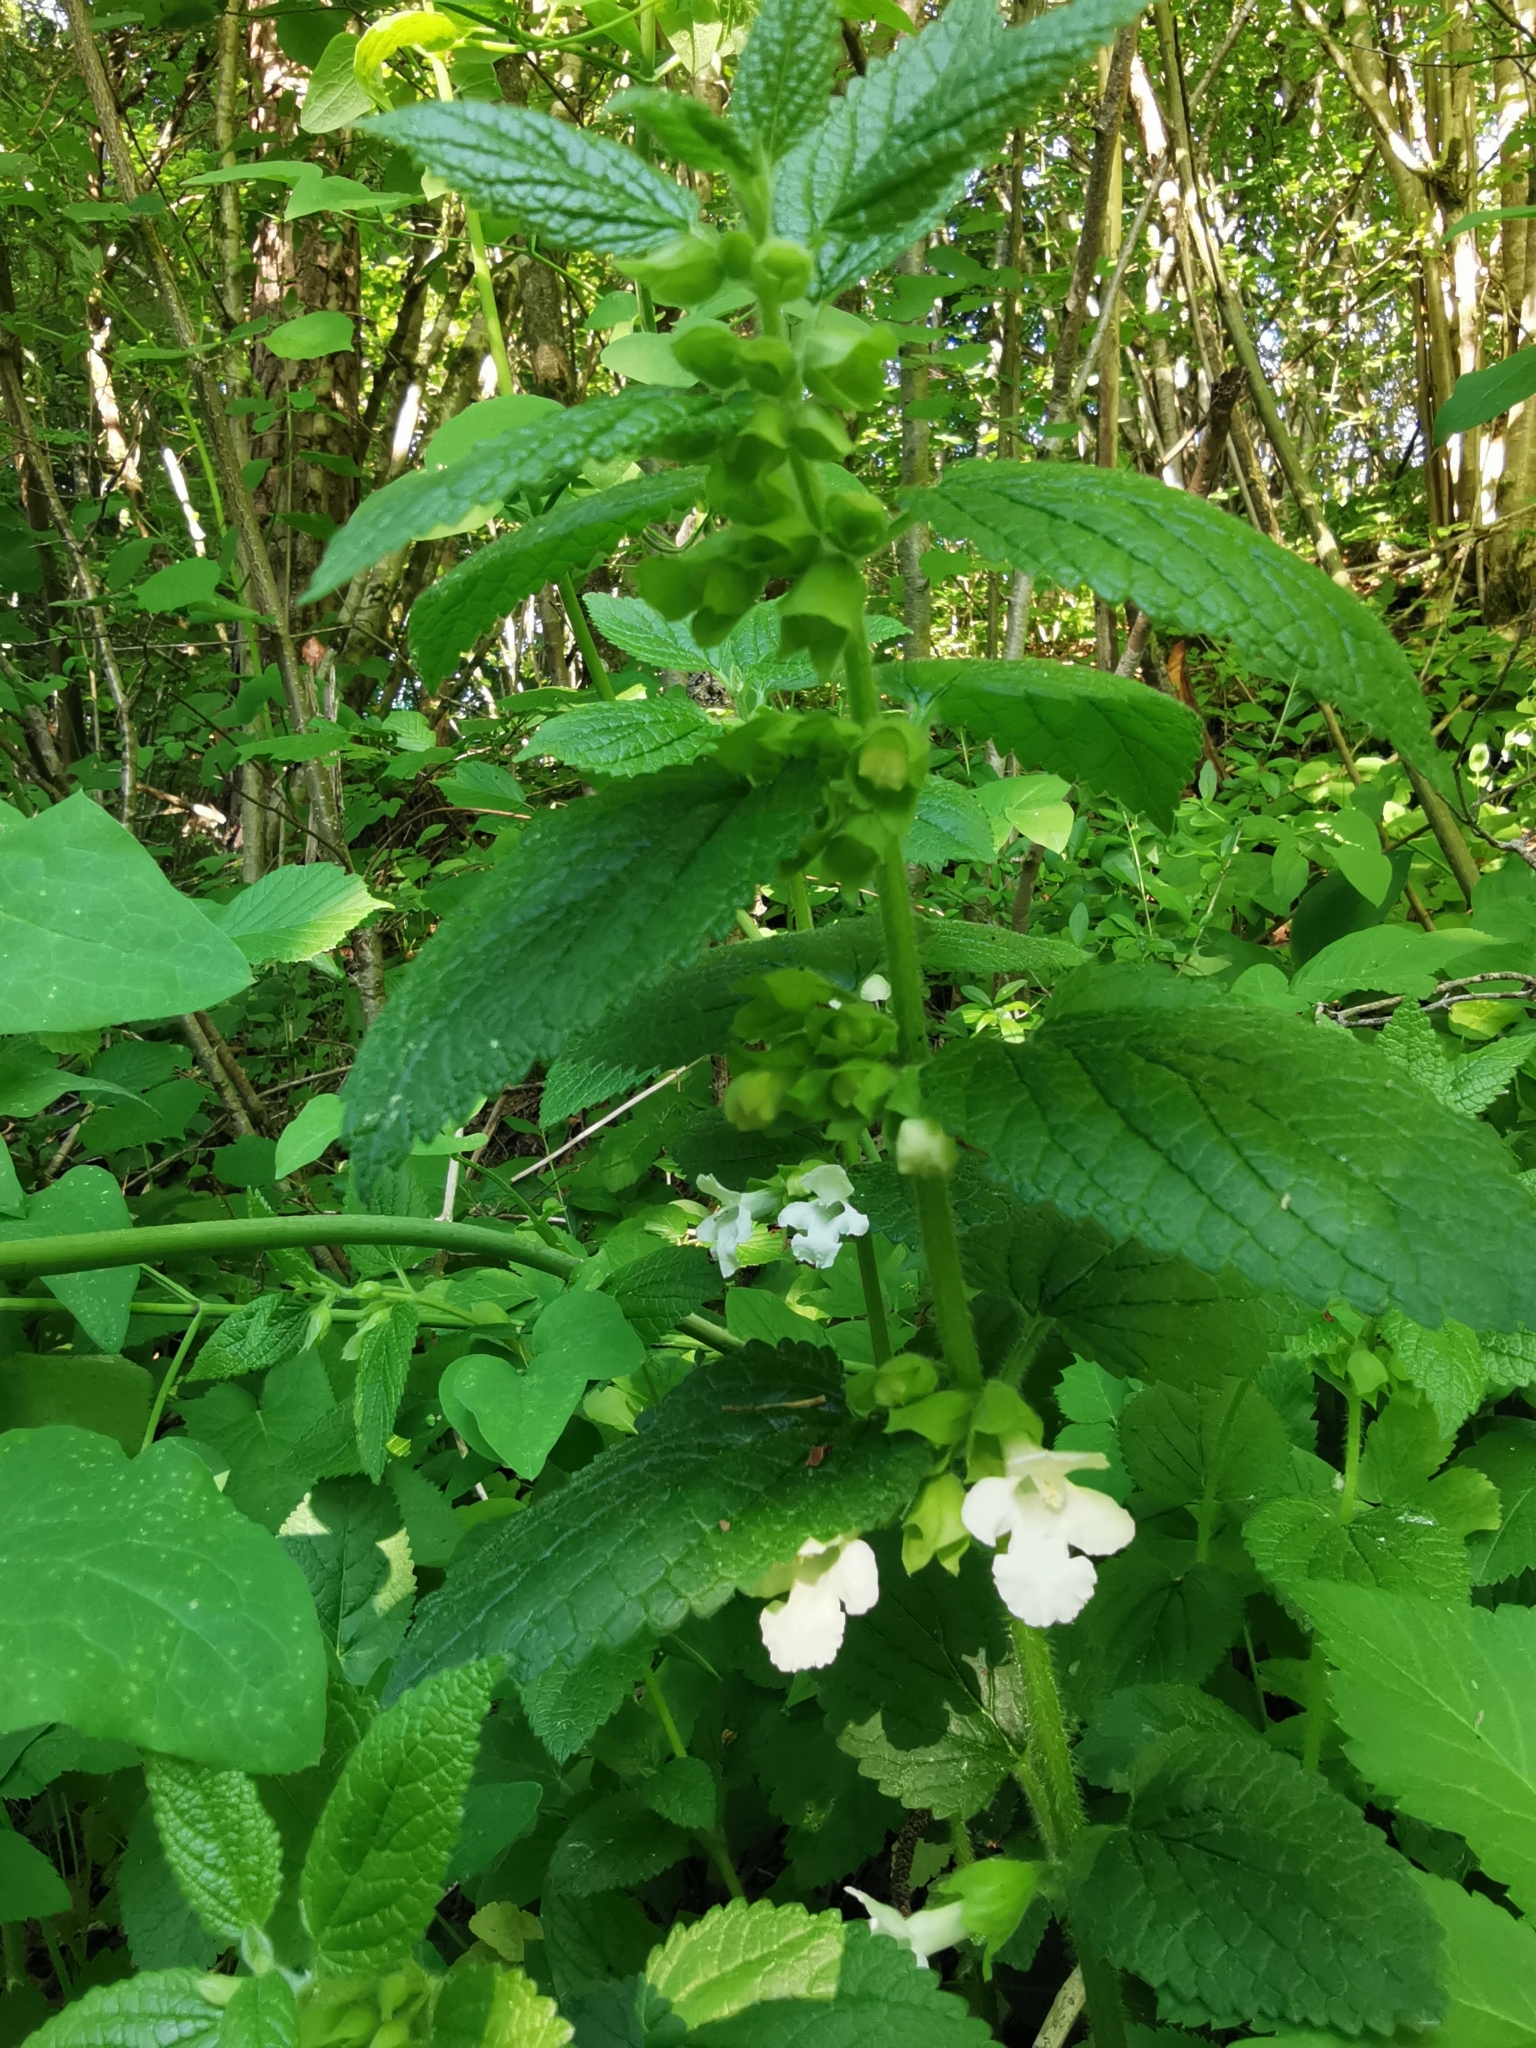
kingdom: Plantae
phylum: Tracheophyta
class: Magnoliopsida
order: Lamiales
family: Lamiaceae
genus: Melittis
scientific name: Melittis melissophyllum
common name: Bastard balm
